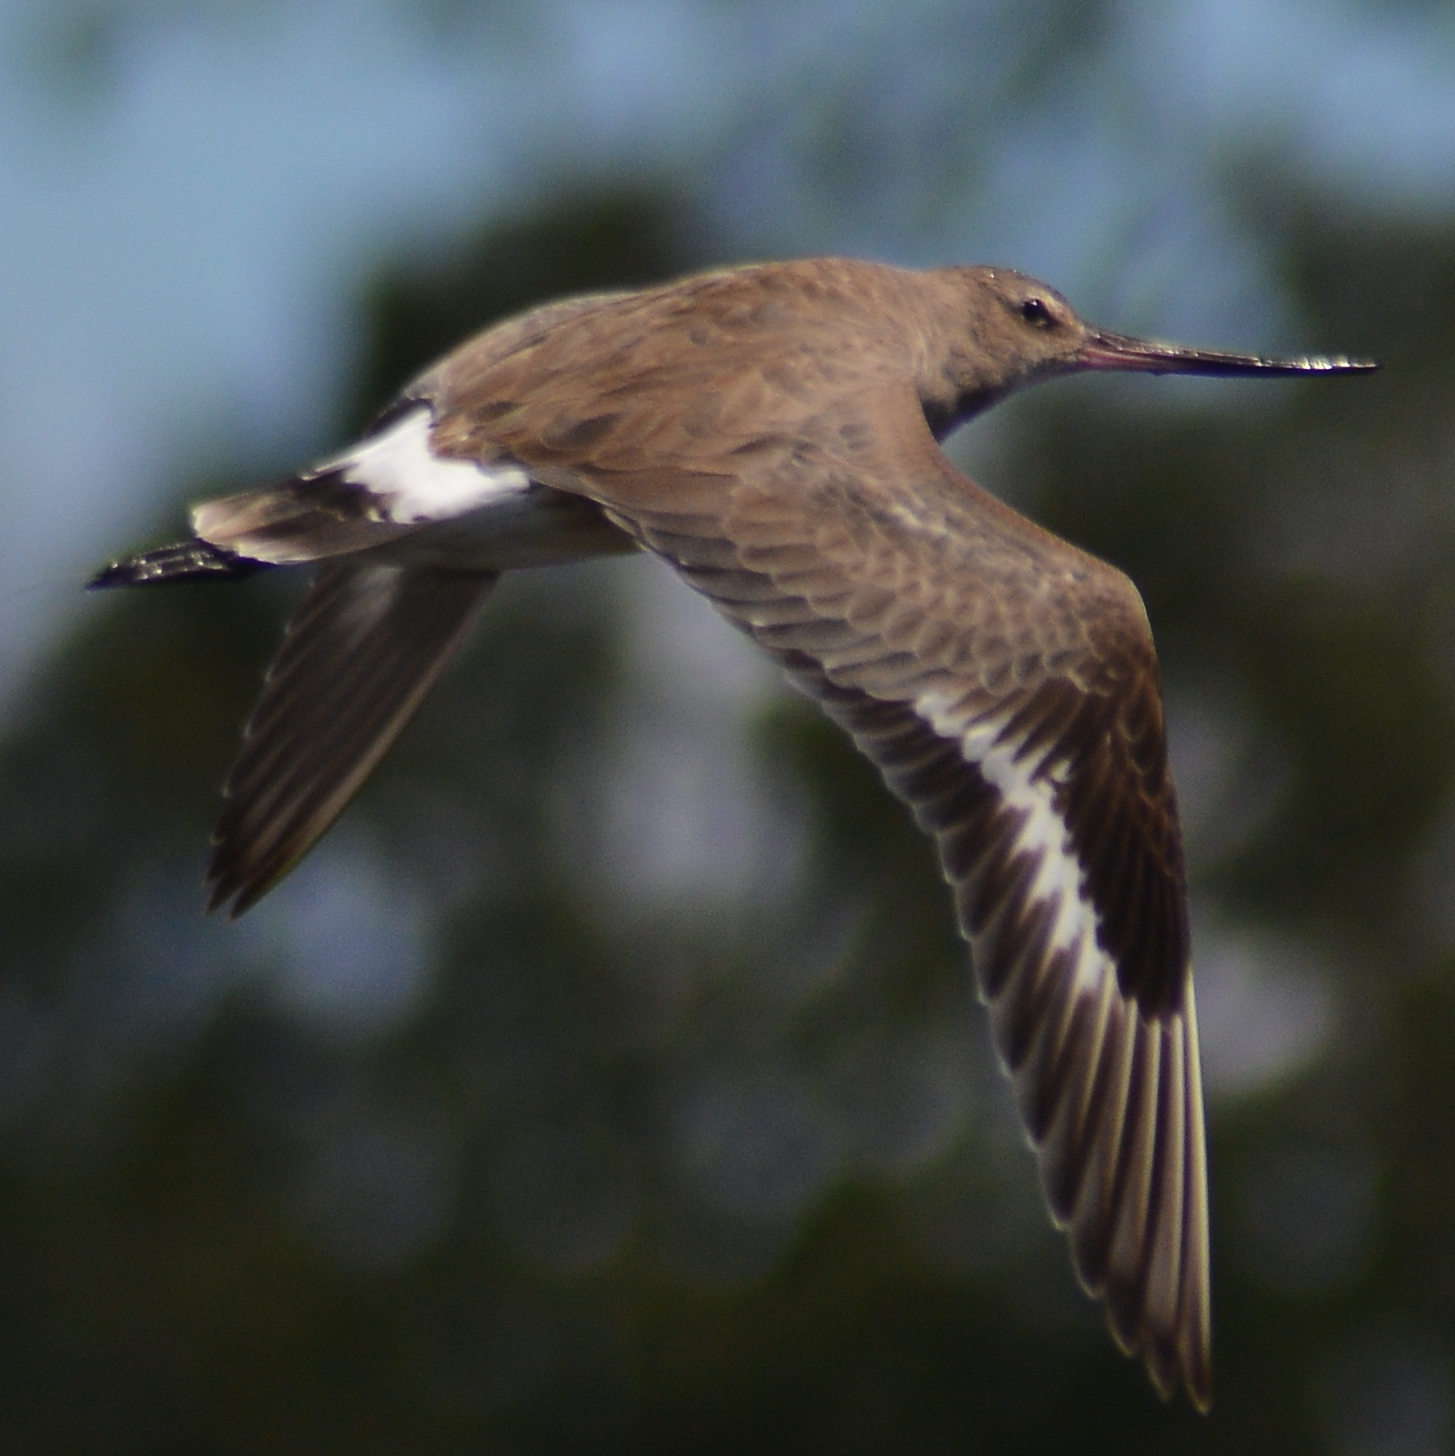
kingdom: Animalia
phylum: Chordata
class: Aves
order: Charadriiformes
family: Scolopacidae
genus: Limosa
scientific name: Limosa haemastica
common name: Hudsonian godwit
